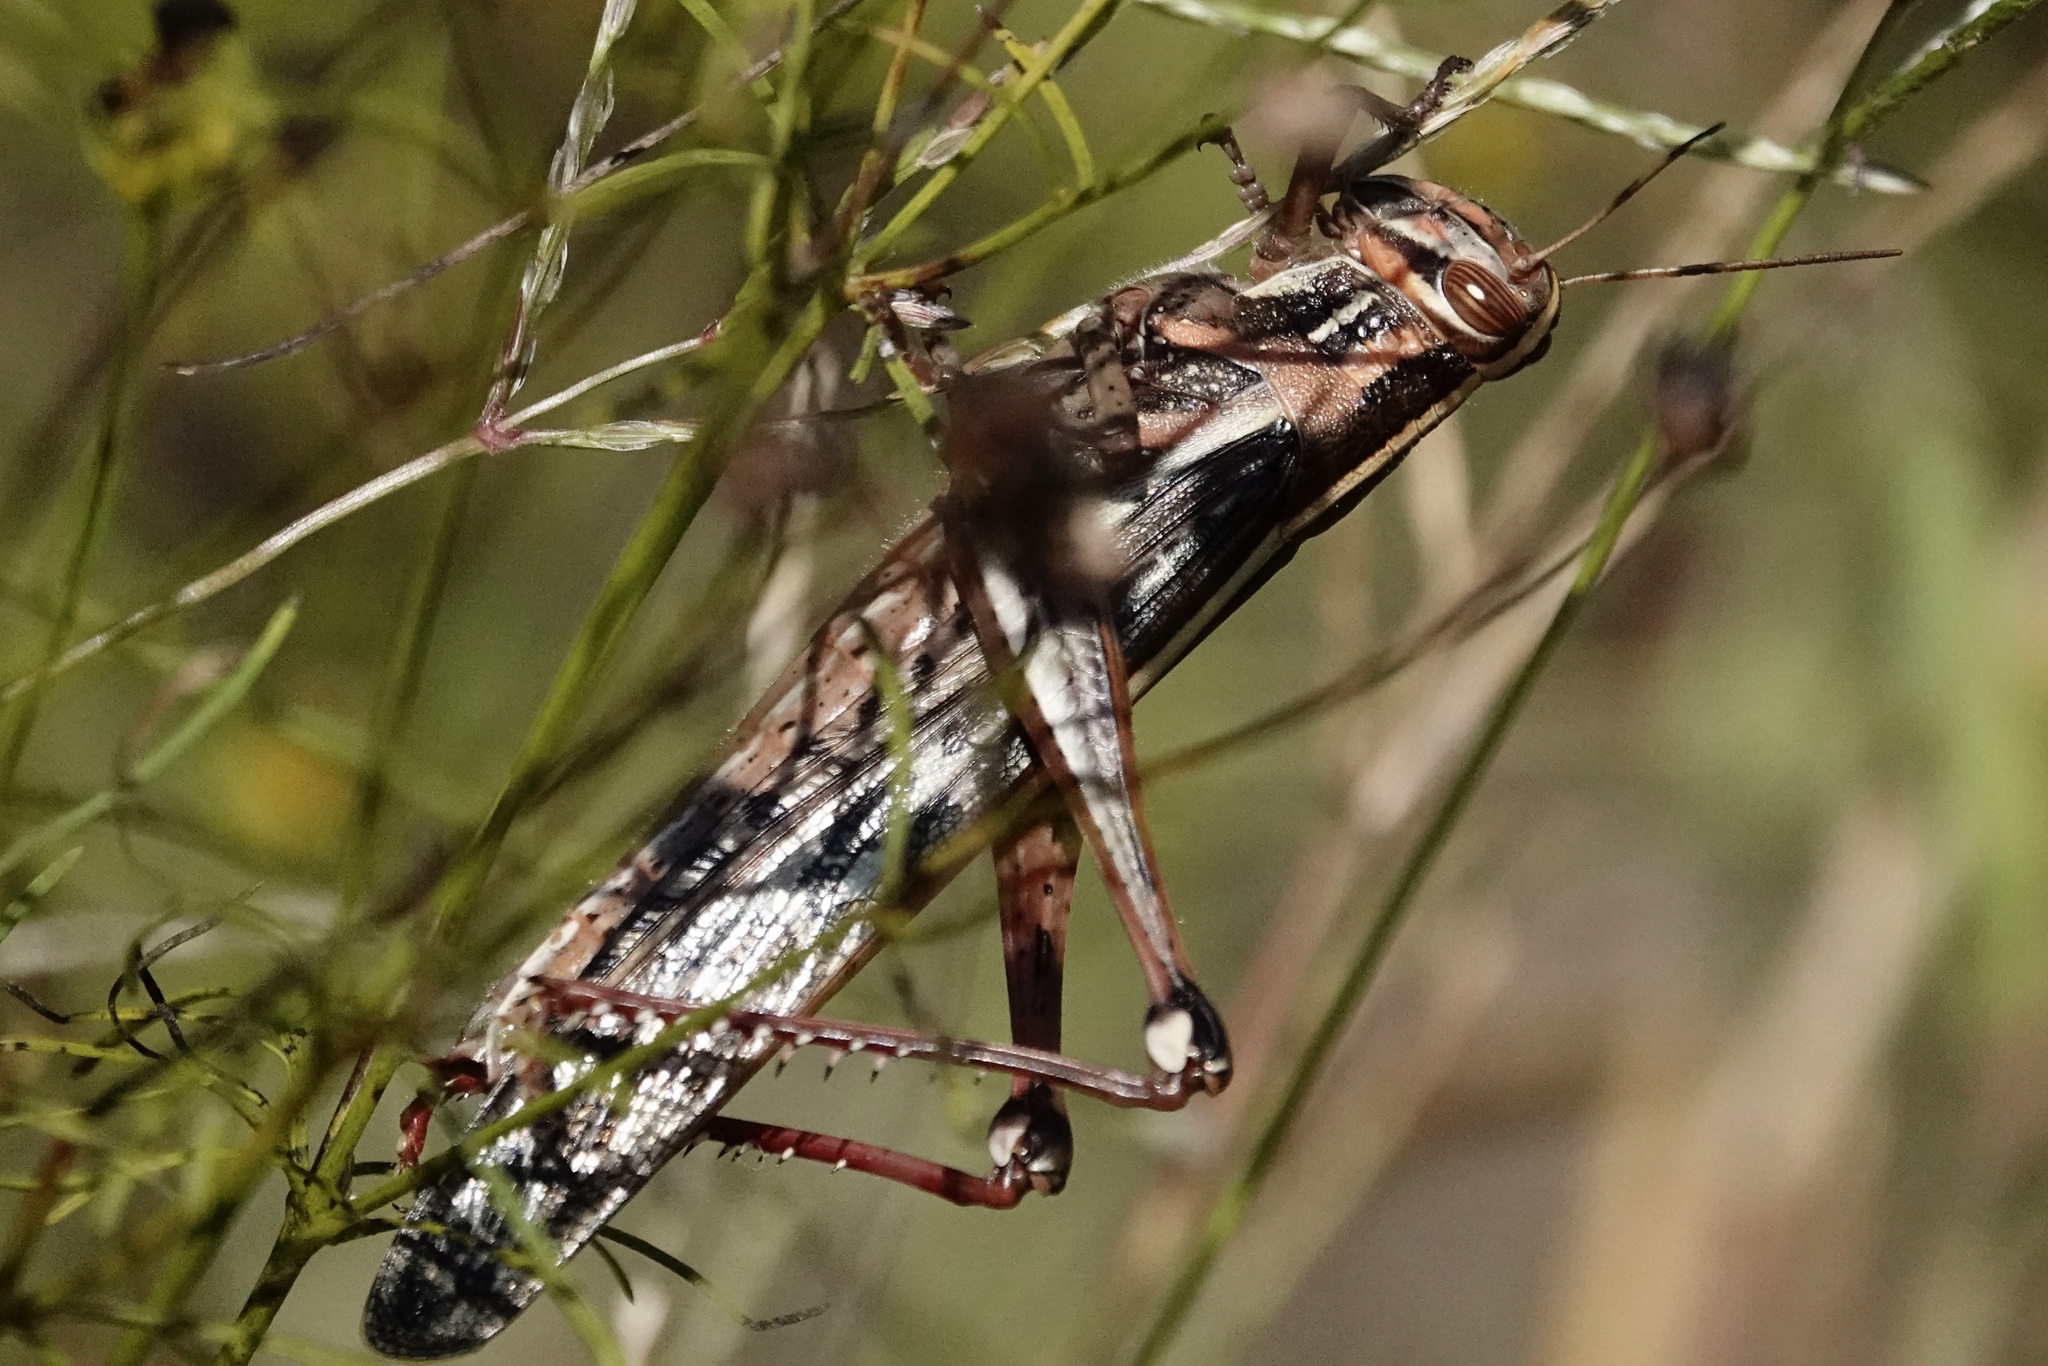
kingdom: Animalia
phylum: Arthropoda
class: Insecta
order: Orthoptera
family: Acrididae
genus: Schistocerca
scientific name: Schistocerca americana
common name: American bird locust
